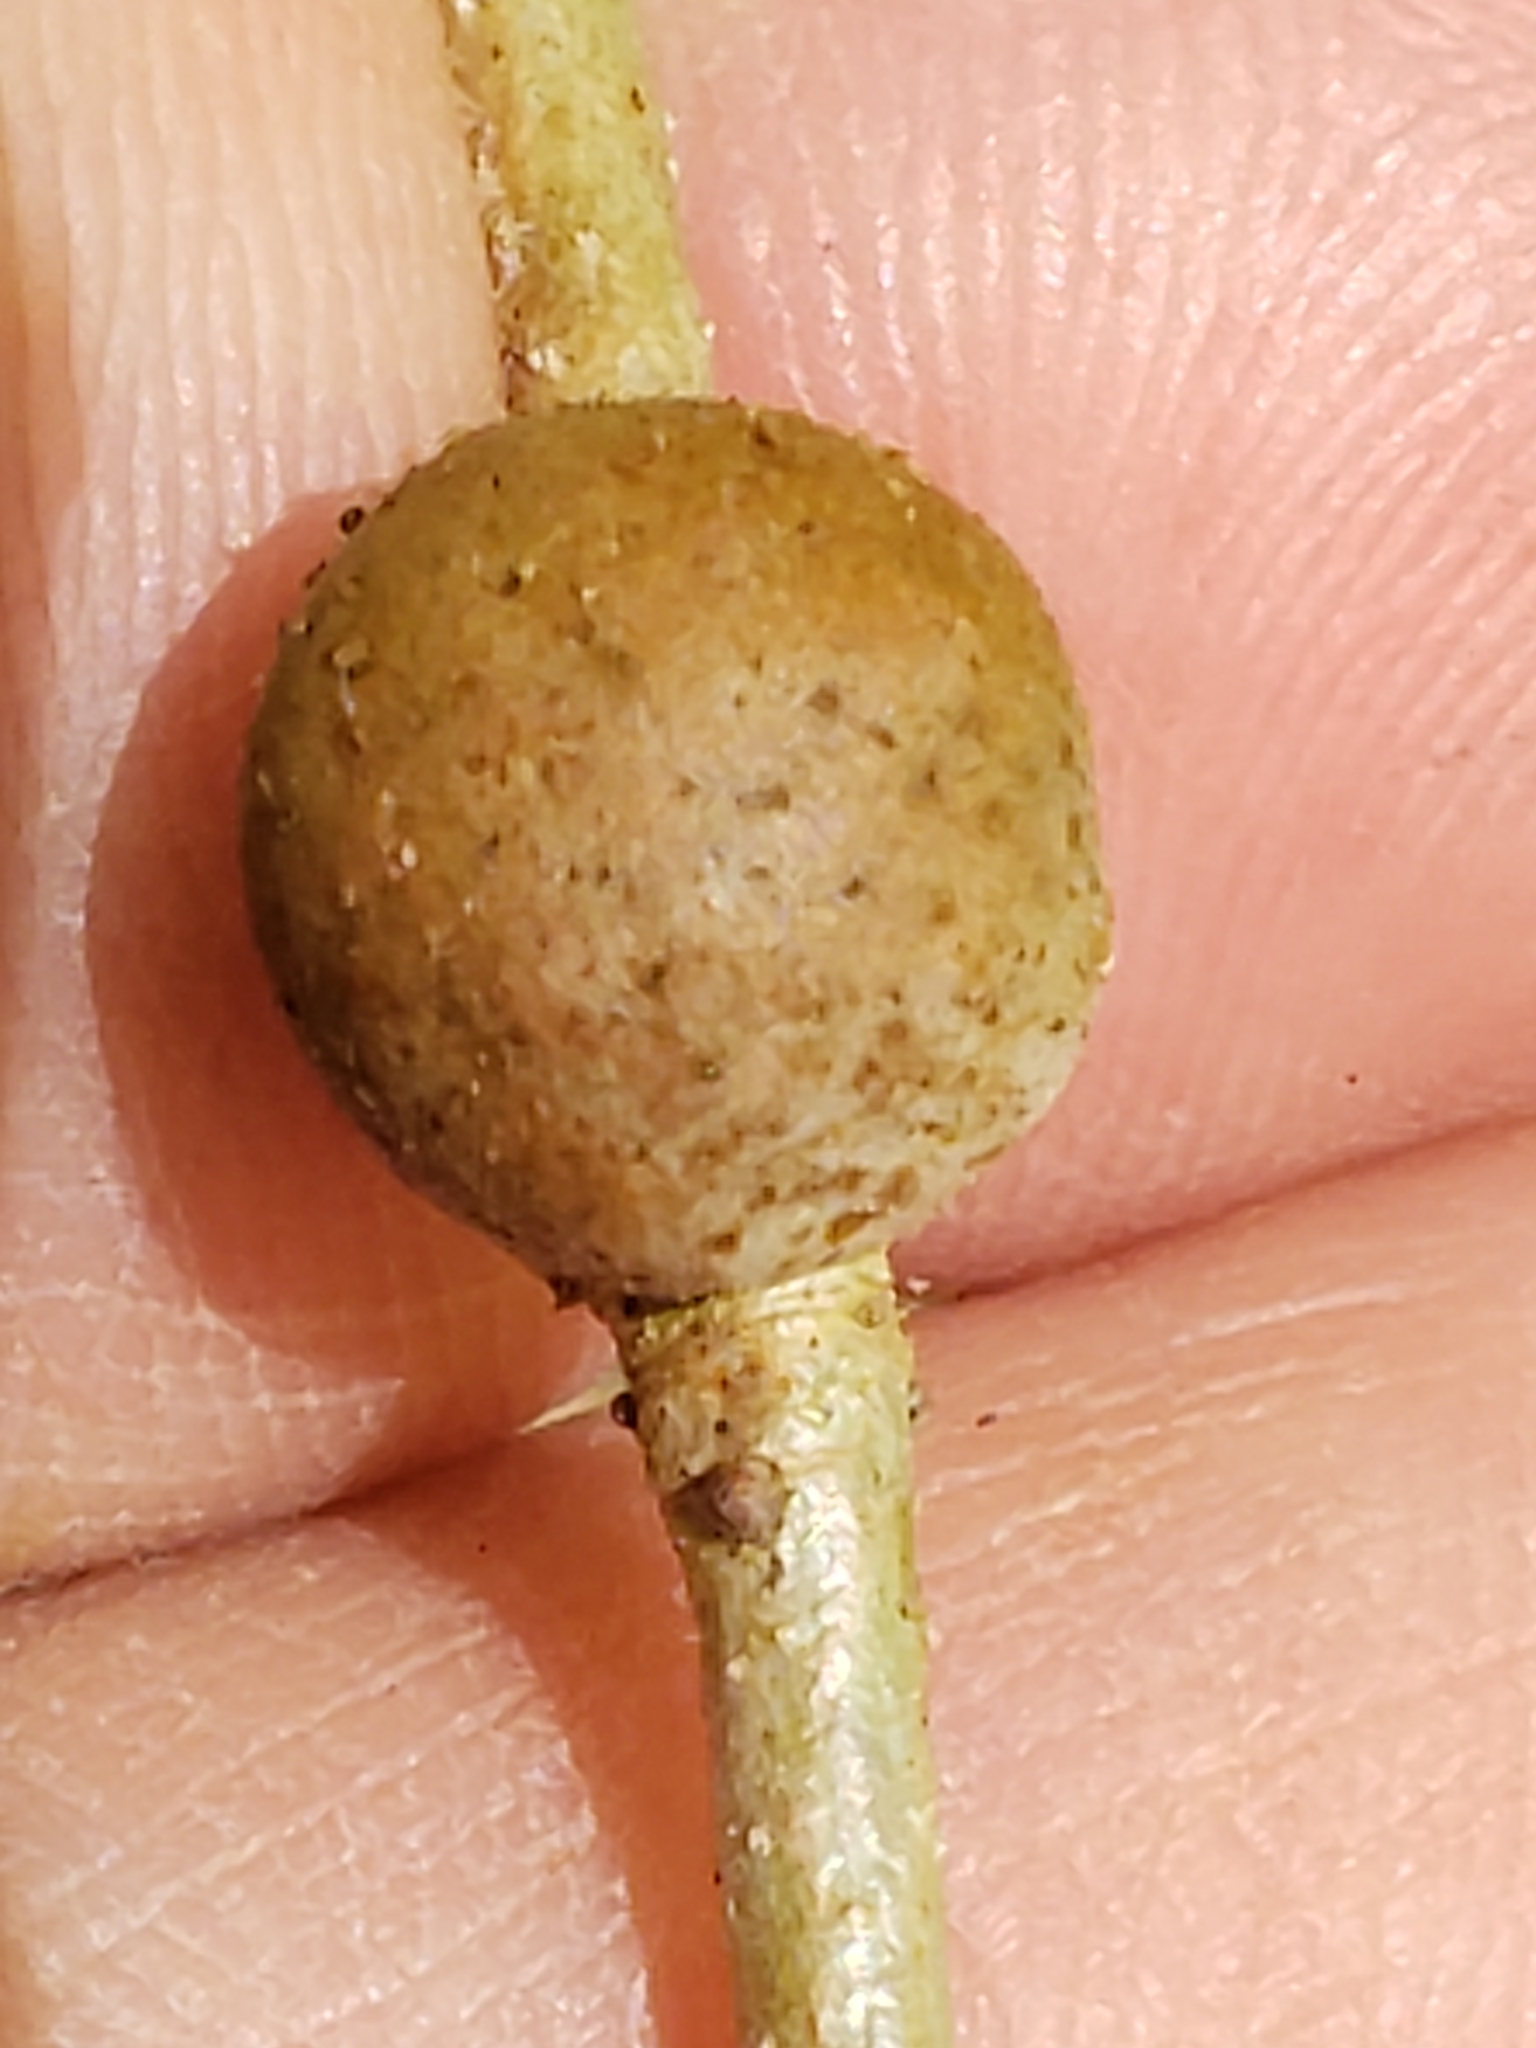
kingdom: Animalia
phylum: Arthropoda
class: Insecta
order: Hymenoptera
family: Cynipidae
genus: Disholcaspis
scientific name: Disholcaspis quercusglobulus
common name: Round bullet gall wasp
